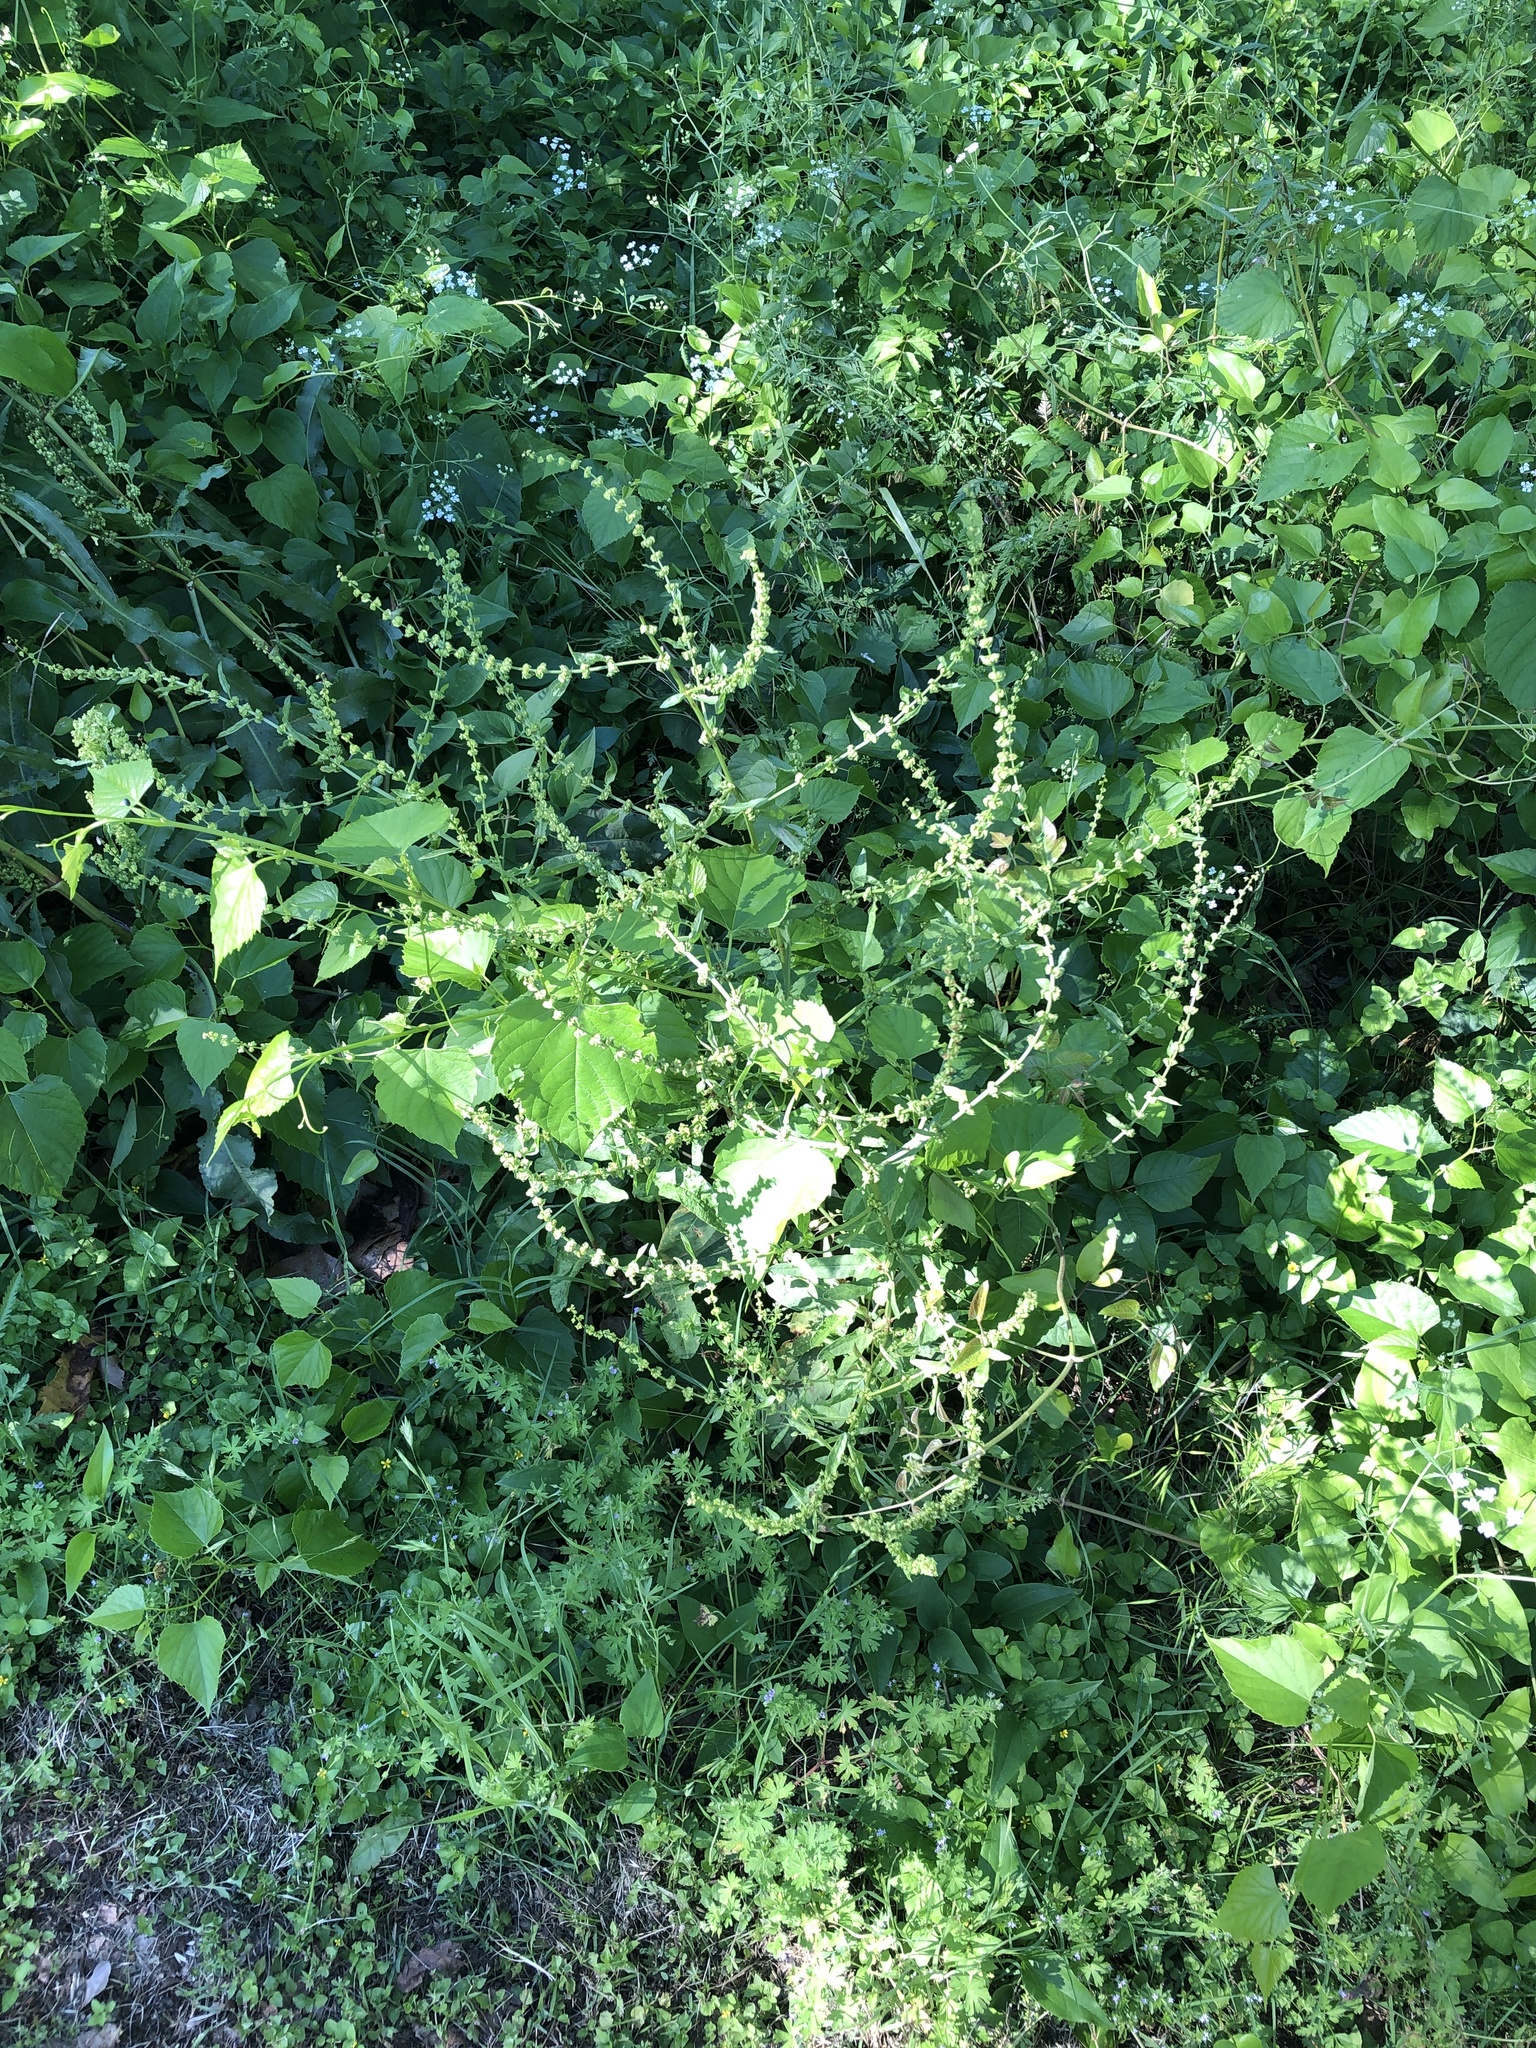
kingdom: Plantae
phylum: Tracheophyta
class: Magnoliopsida
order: Caryophyllales
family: Polygonaceae
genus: Rumex
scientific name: Rumex pulcher
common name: Fiddle dock
